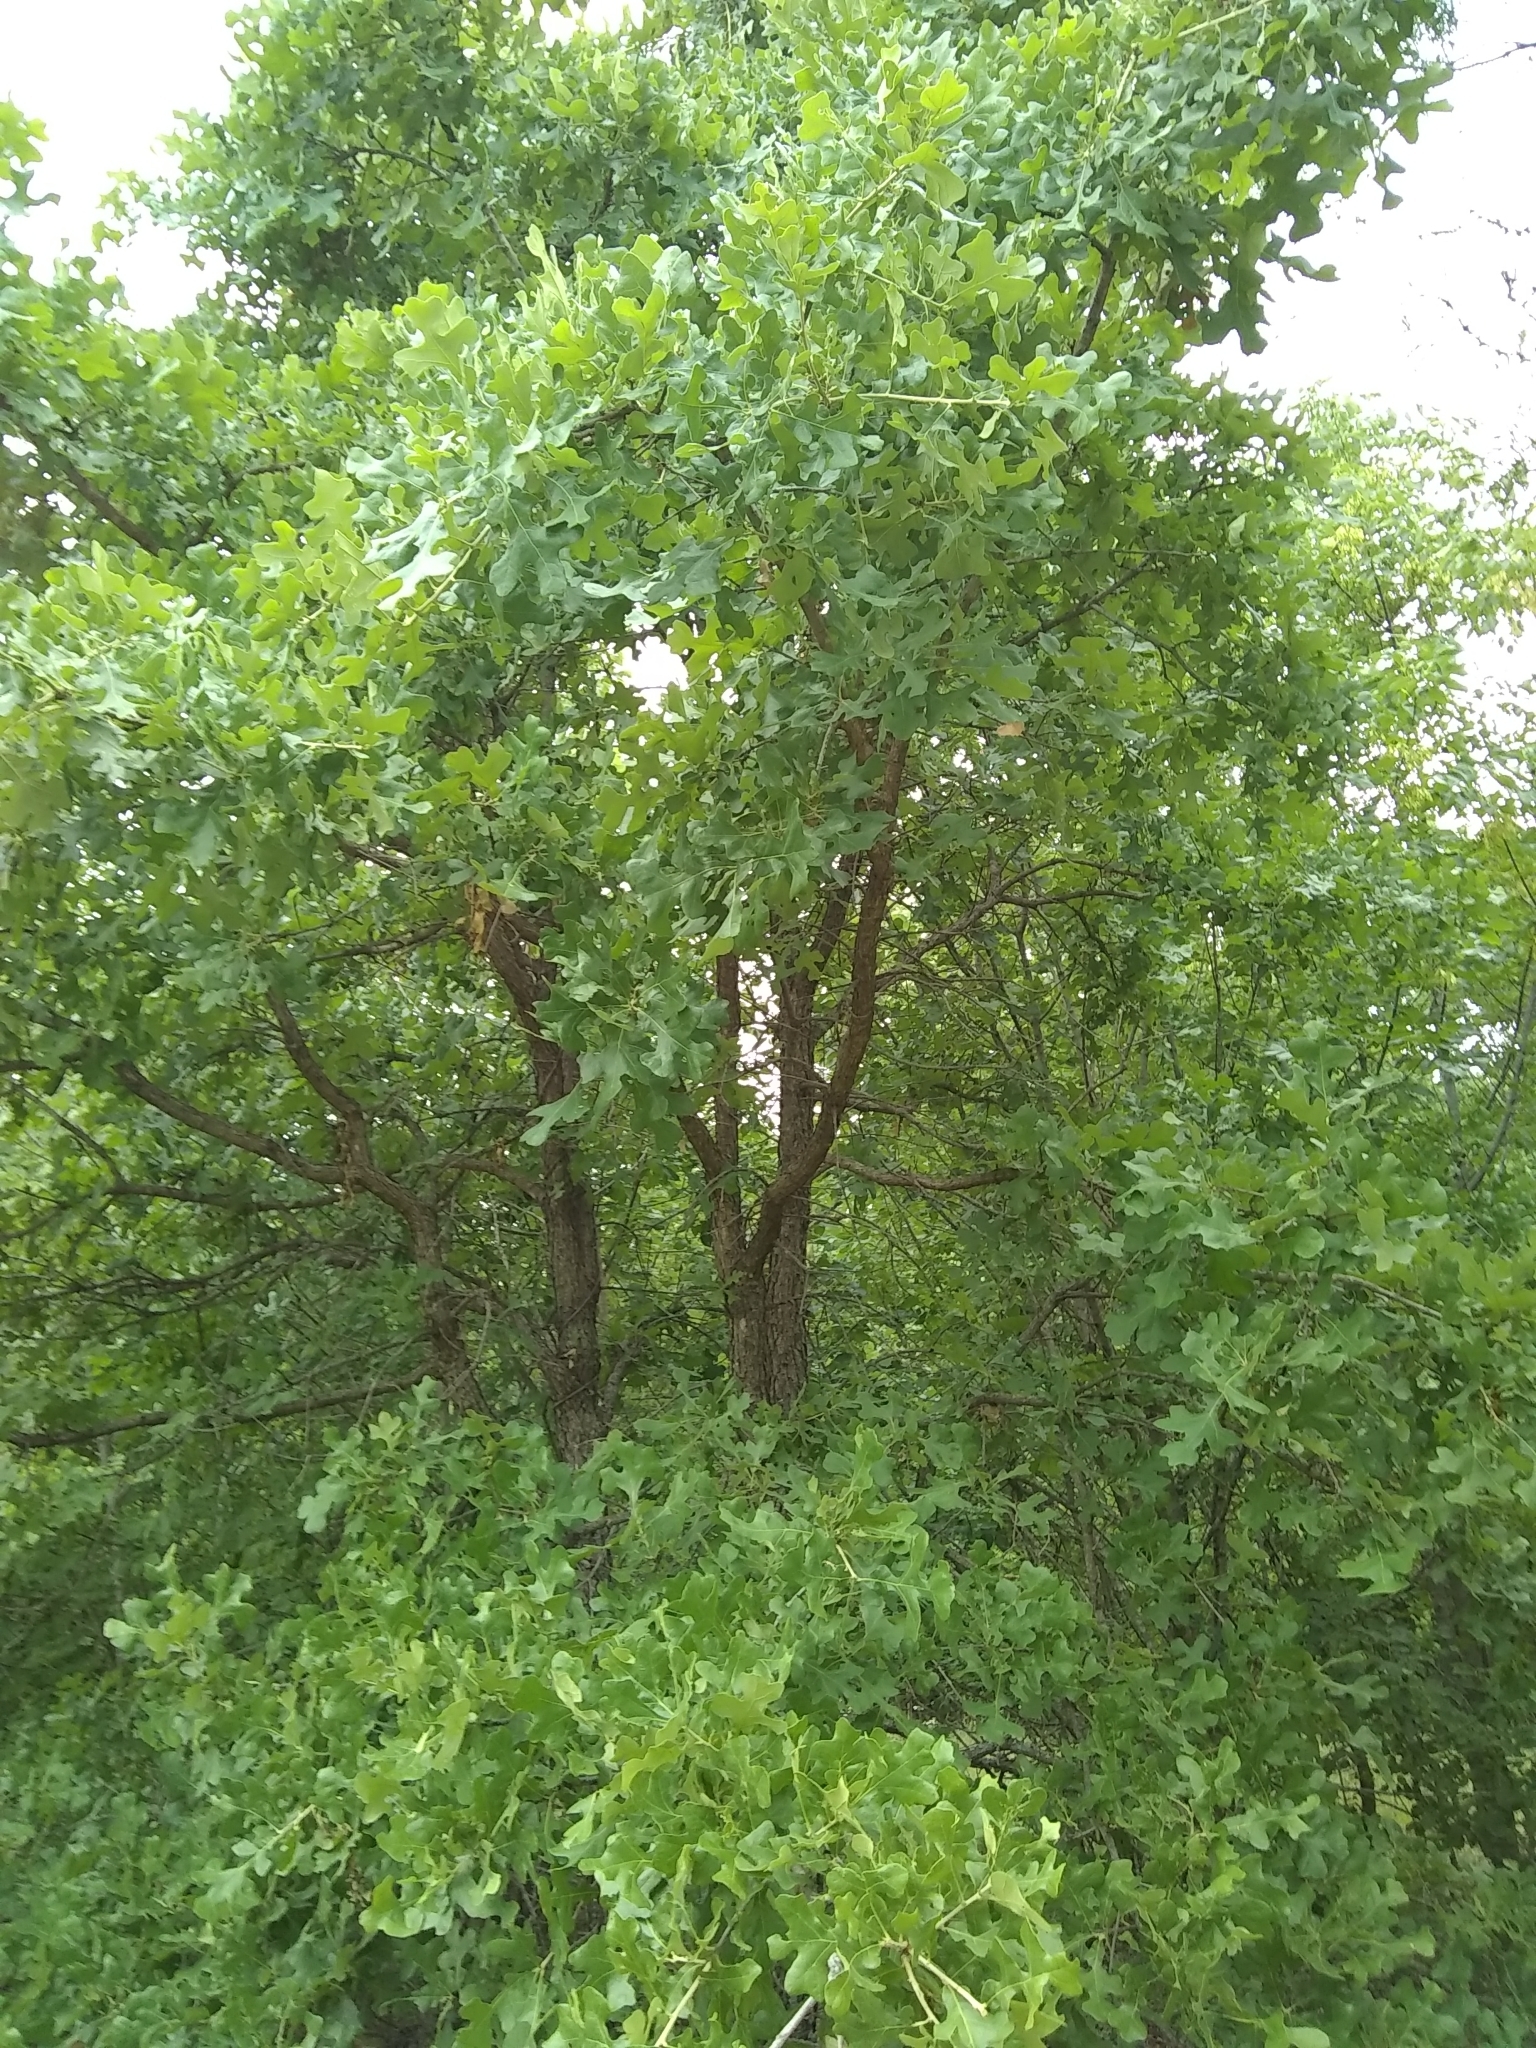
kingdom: Plantae
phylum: Tracheophyta
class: Magnoliopsida
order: Fagales
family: Fagaceae
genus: Quercus
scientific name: Quercus stellata
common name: Post oak
